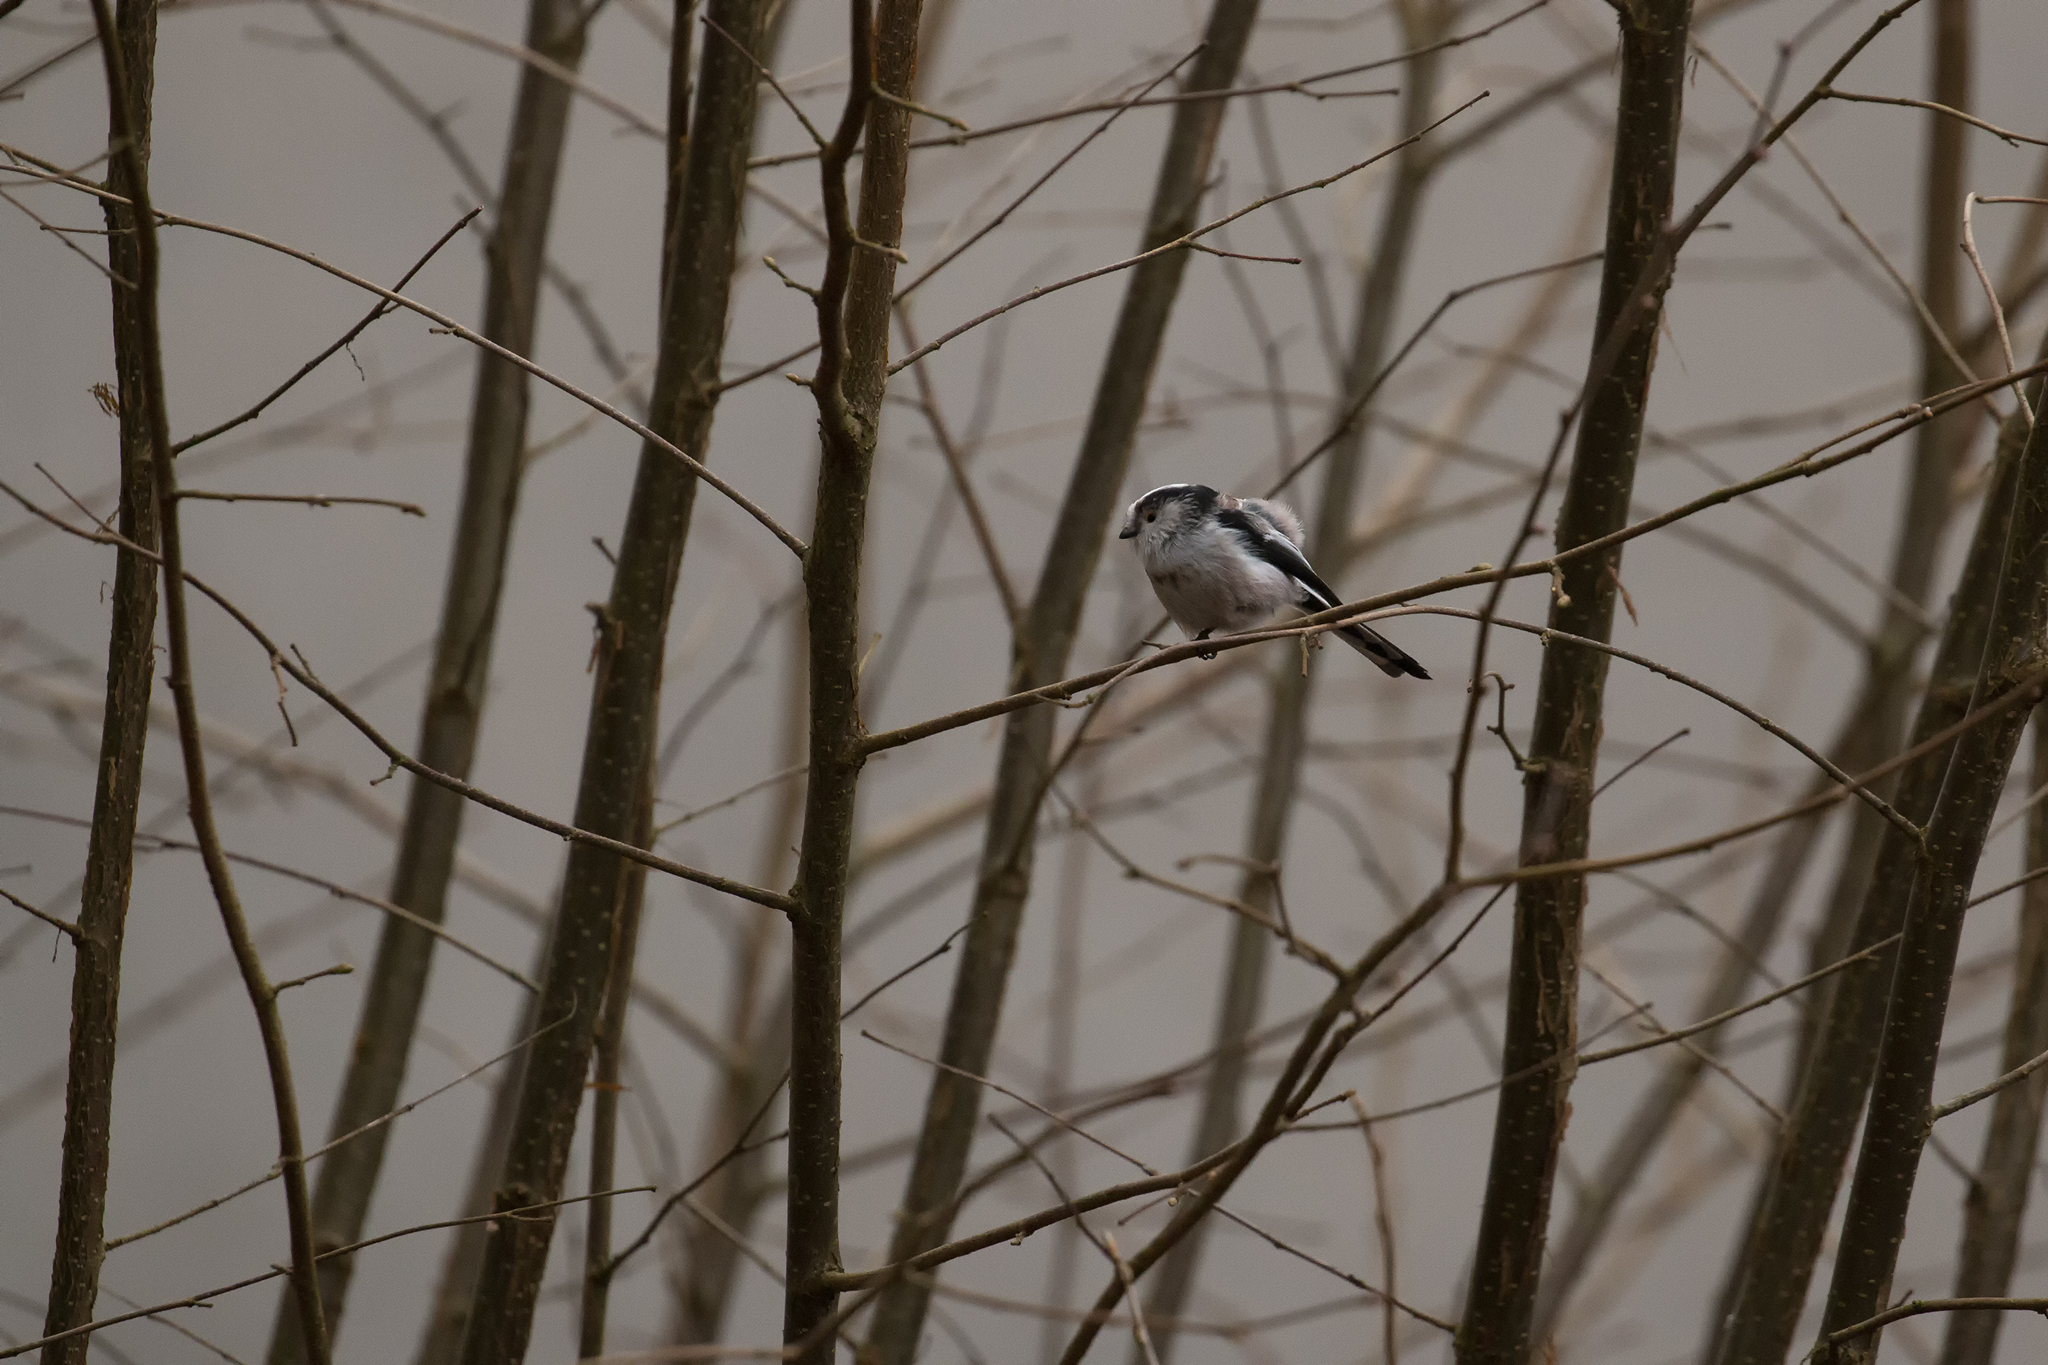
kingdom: Animalia
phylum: Chordata
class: Aves
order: Passeriformes
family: Aegithalidae
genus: Aegithalos
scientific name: Aegithalos caudatus
